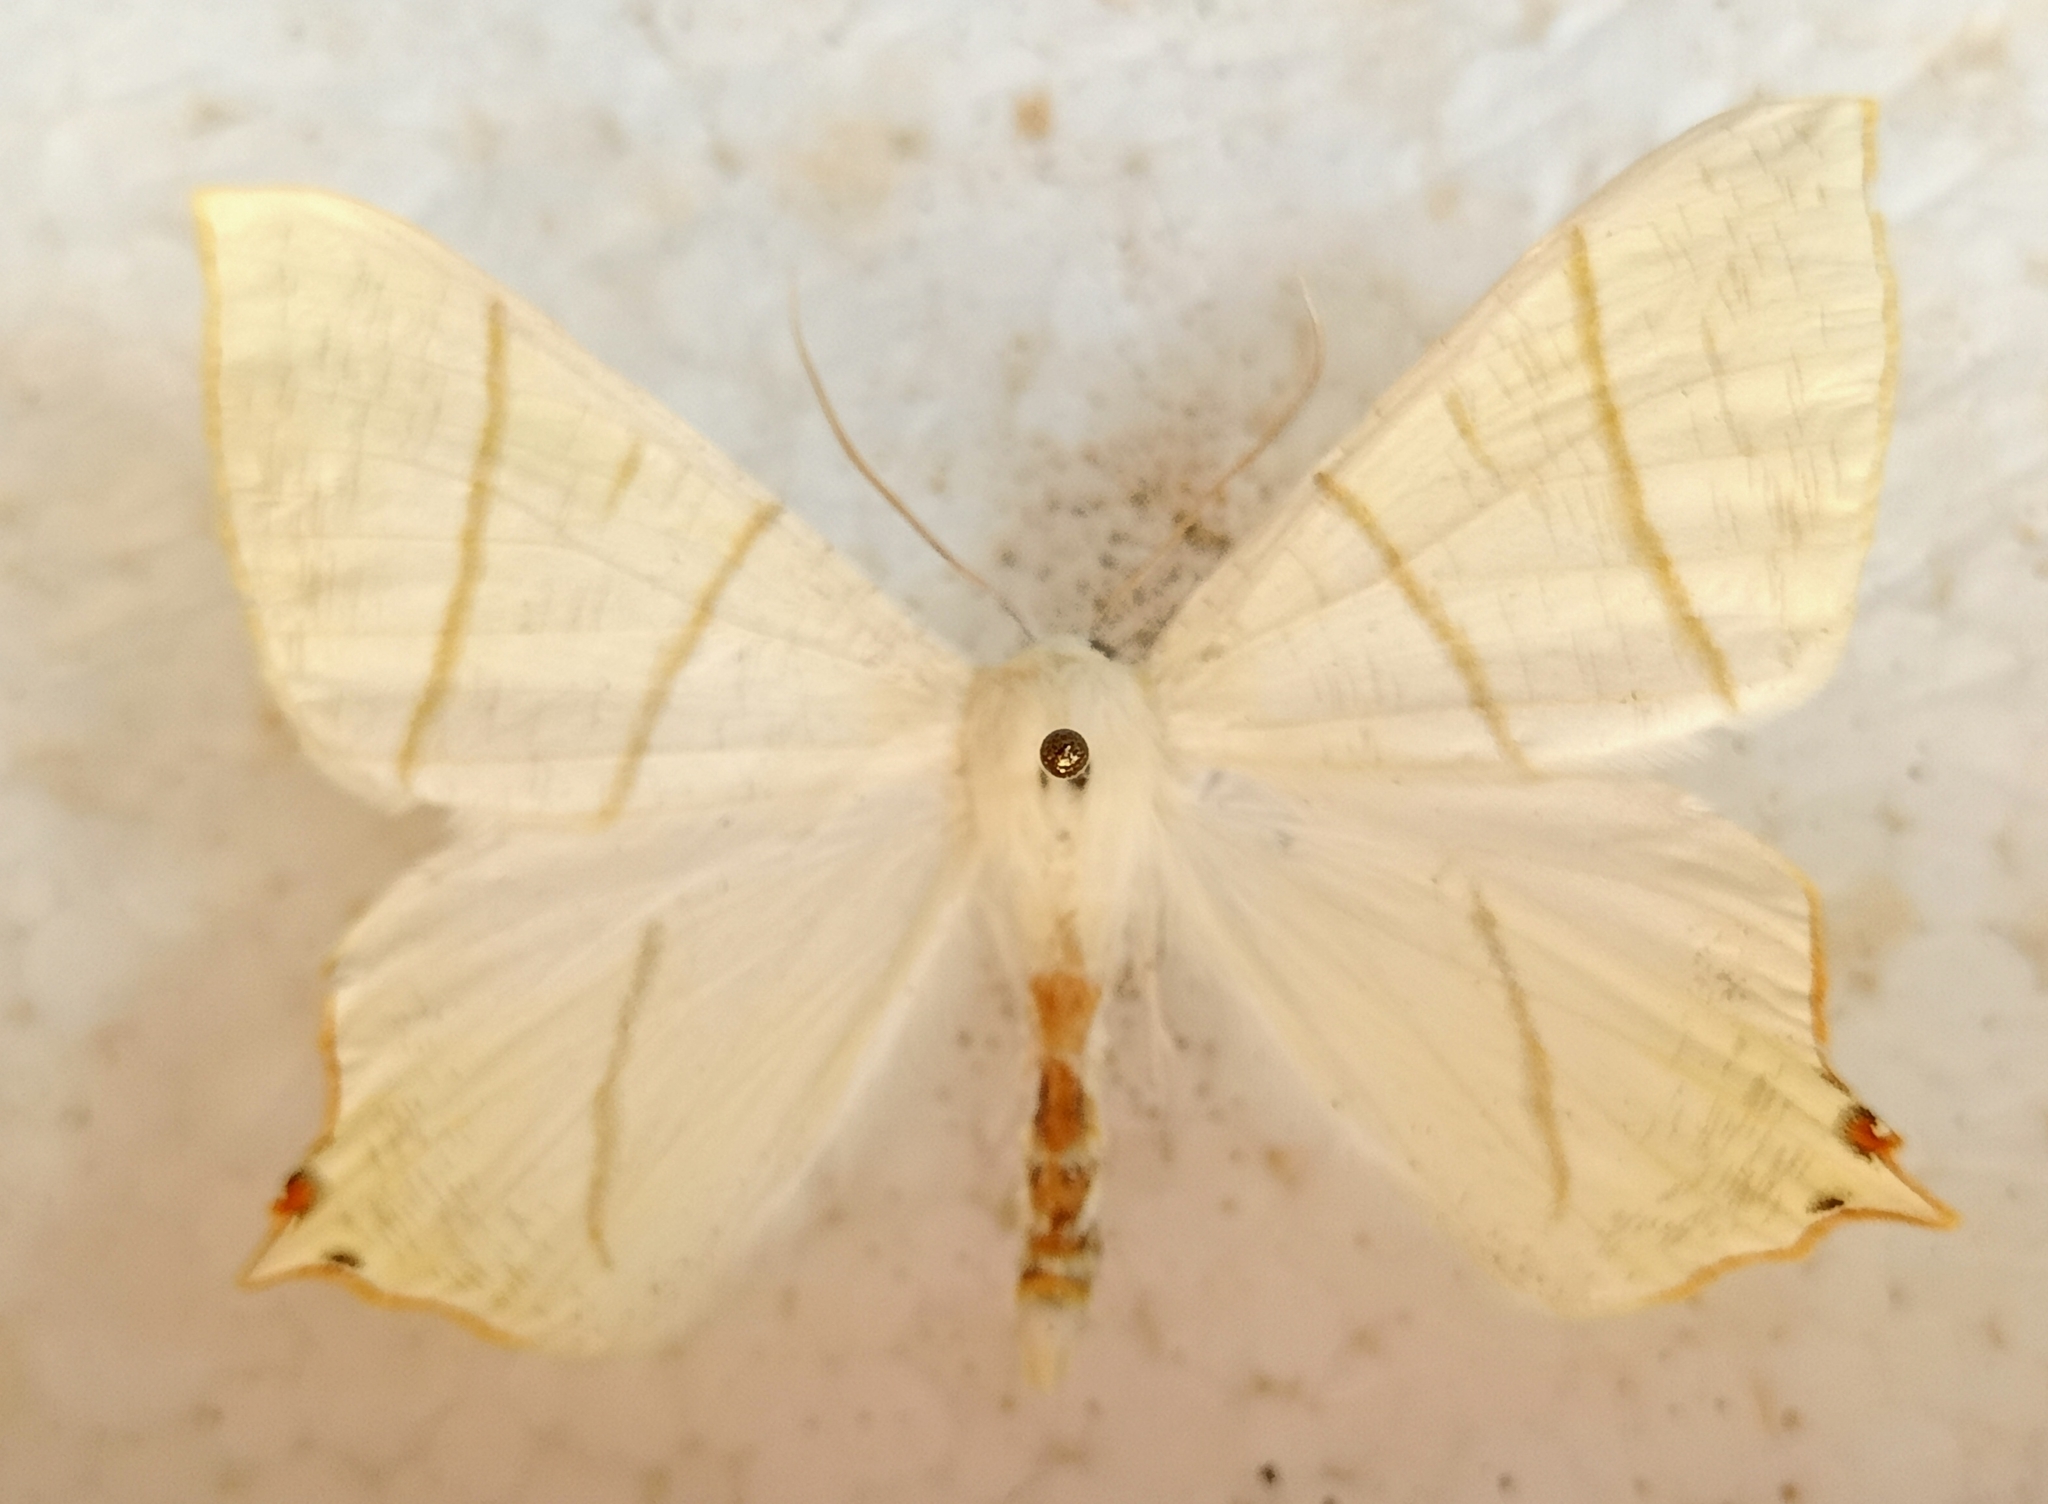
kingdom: Animalia
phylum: Arthropoda
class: Insecta
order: Lepidoptera
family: Geometridae
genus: Ourapteryx
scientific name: Ourapteryx sambucaria
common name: Swallow-tailed moth
